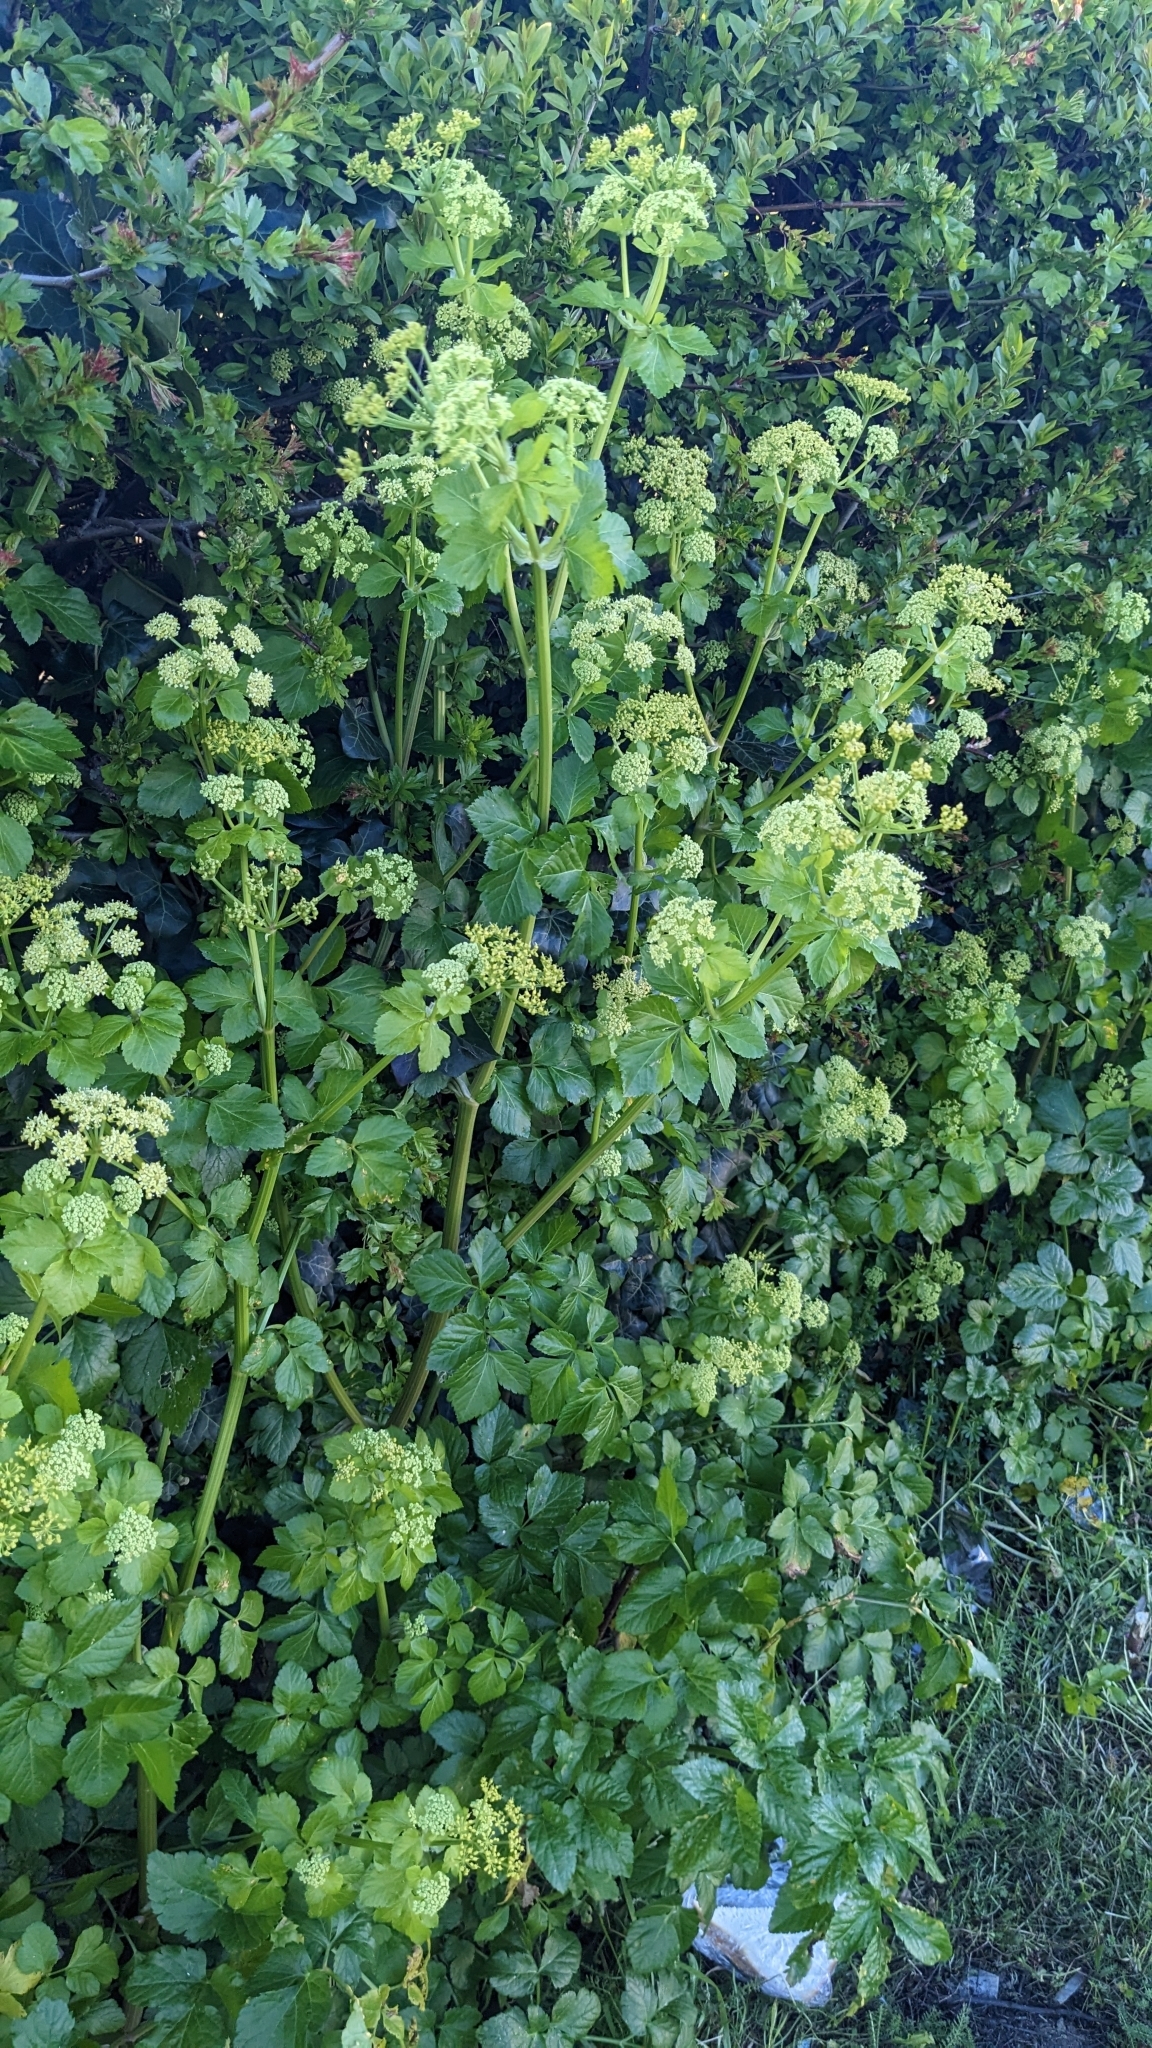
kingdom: Fungi
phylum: Basidiomycota
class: Pucciniomycetes
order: Pucciniales
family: Pucciniaceae
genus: Puccinia
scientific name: Puccinia smyrnii
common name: Alexanders rust
